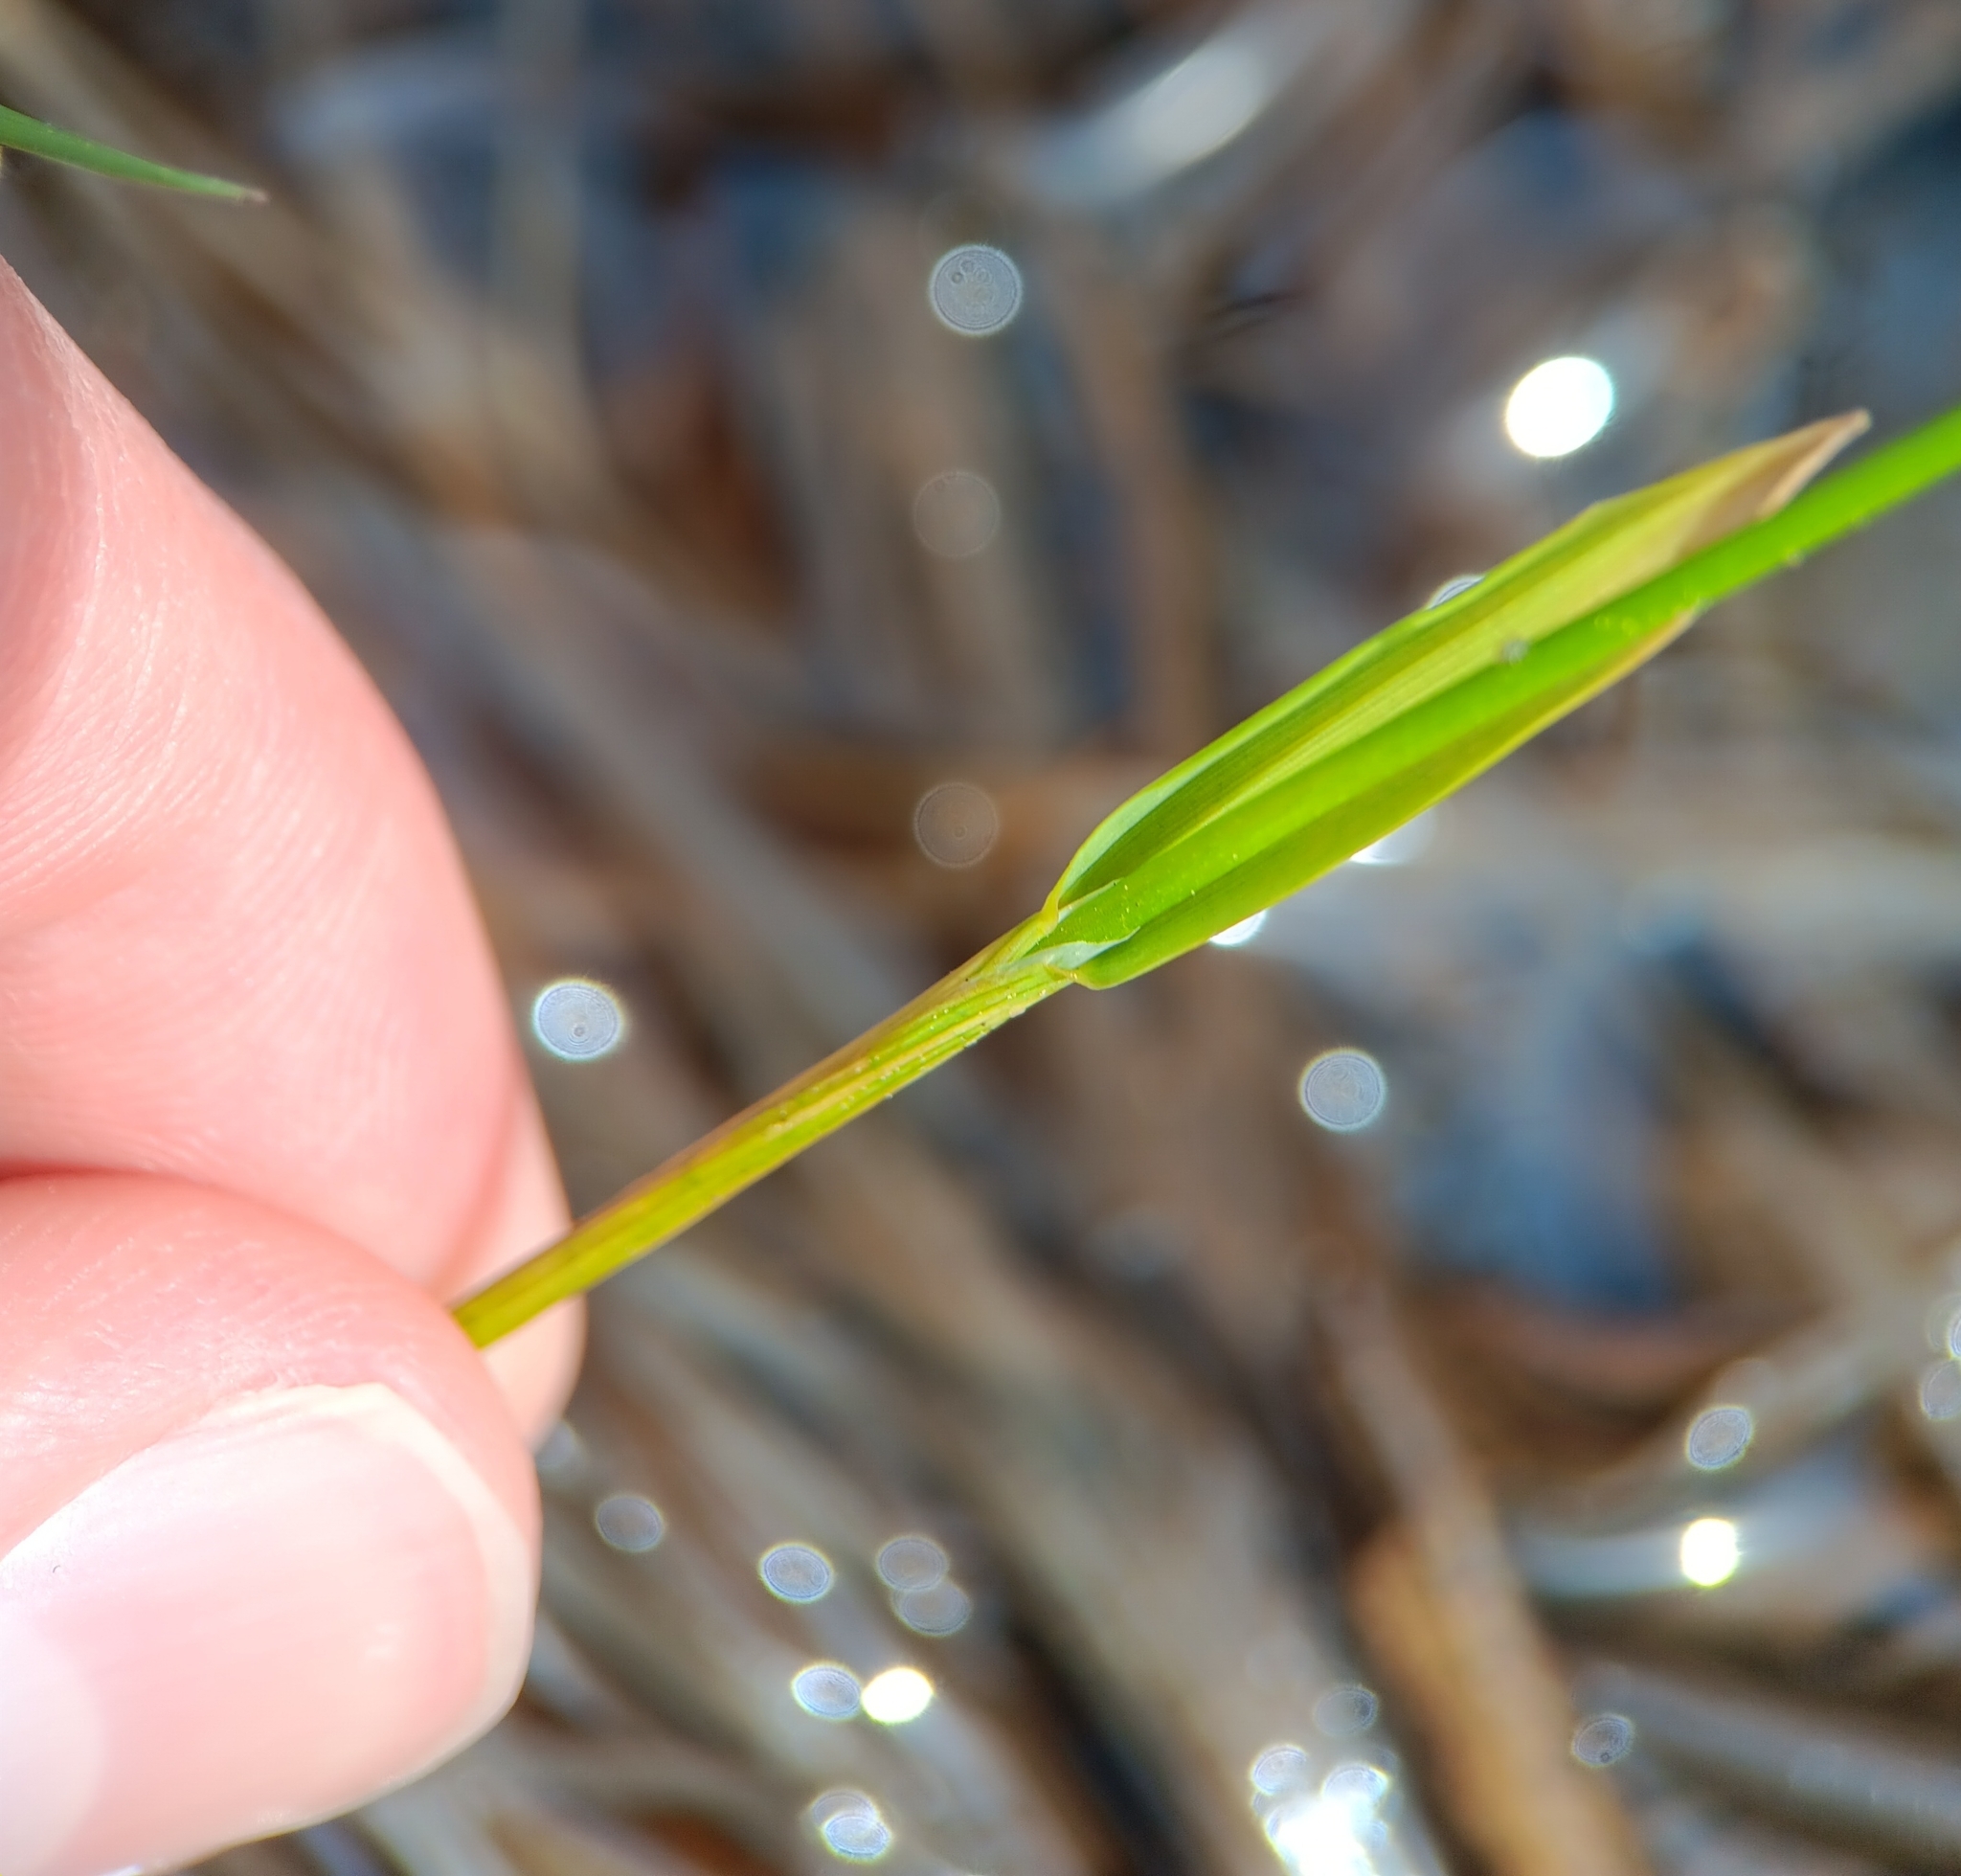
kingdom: Plantae
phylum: Tracheophyta
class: Liliopsida
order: Poales
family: Poaceae
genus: Anthoxanthum
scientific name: Anthoxanthum nitens
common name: Holy grass
